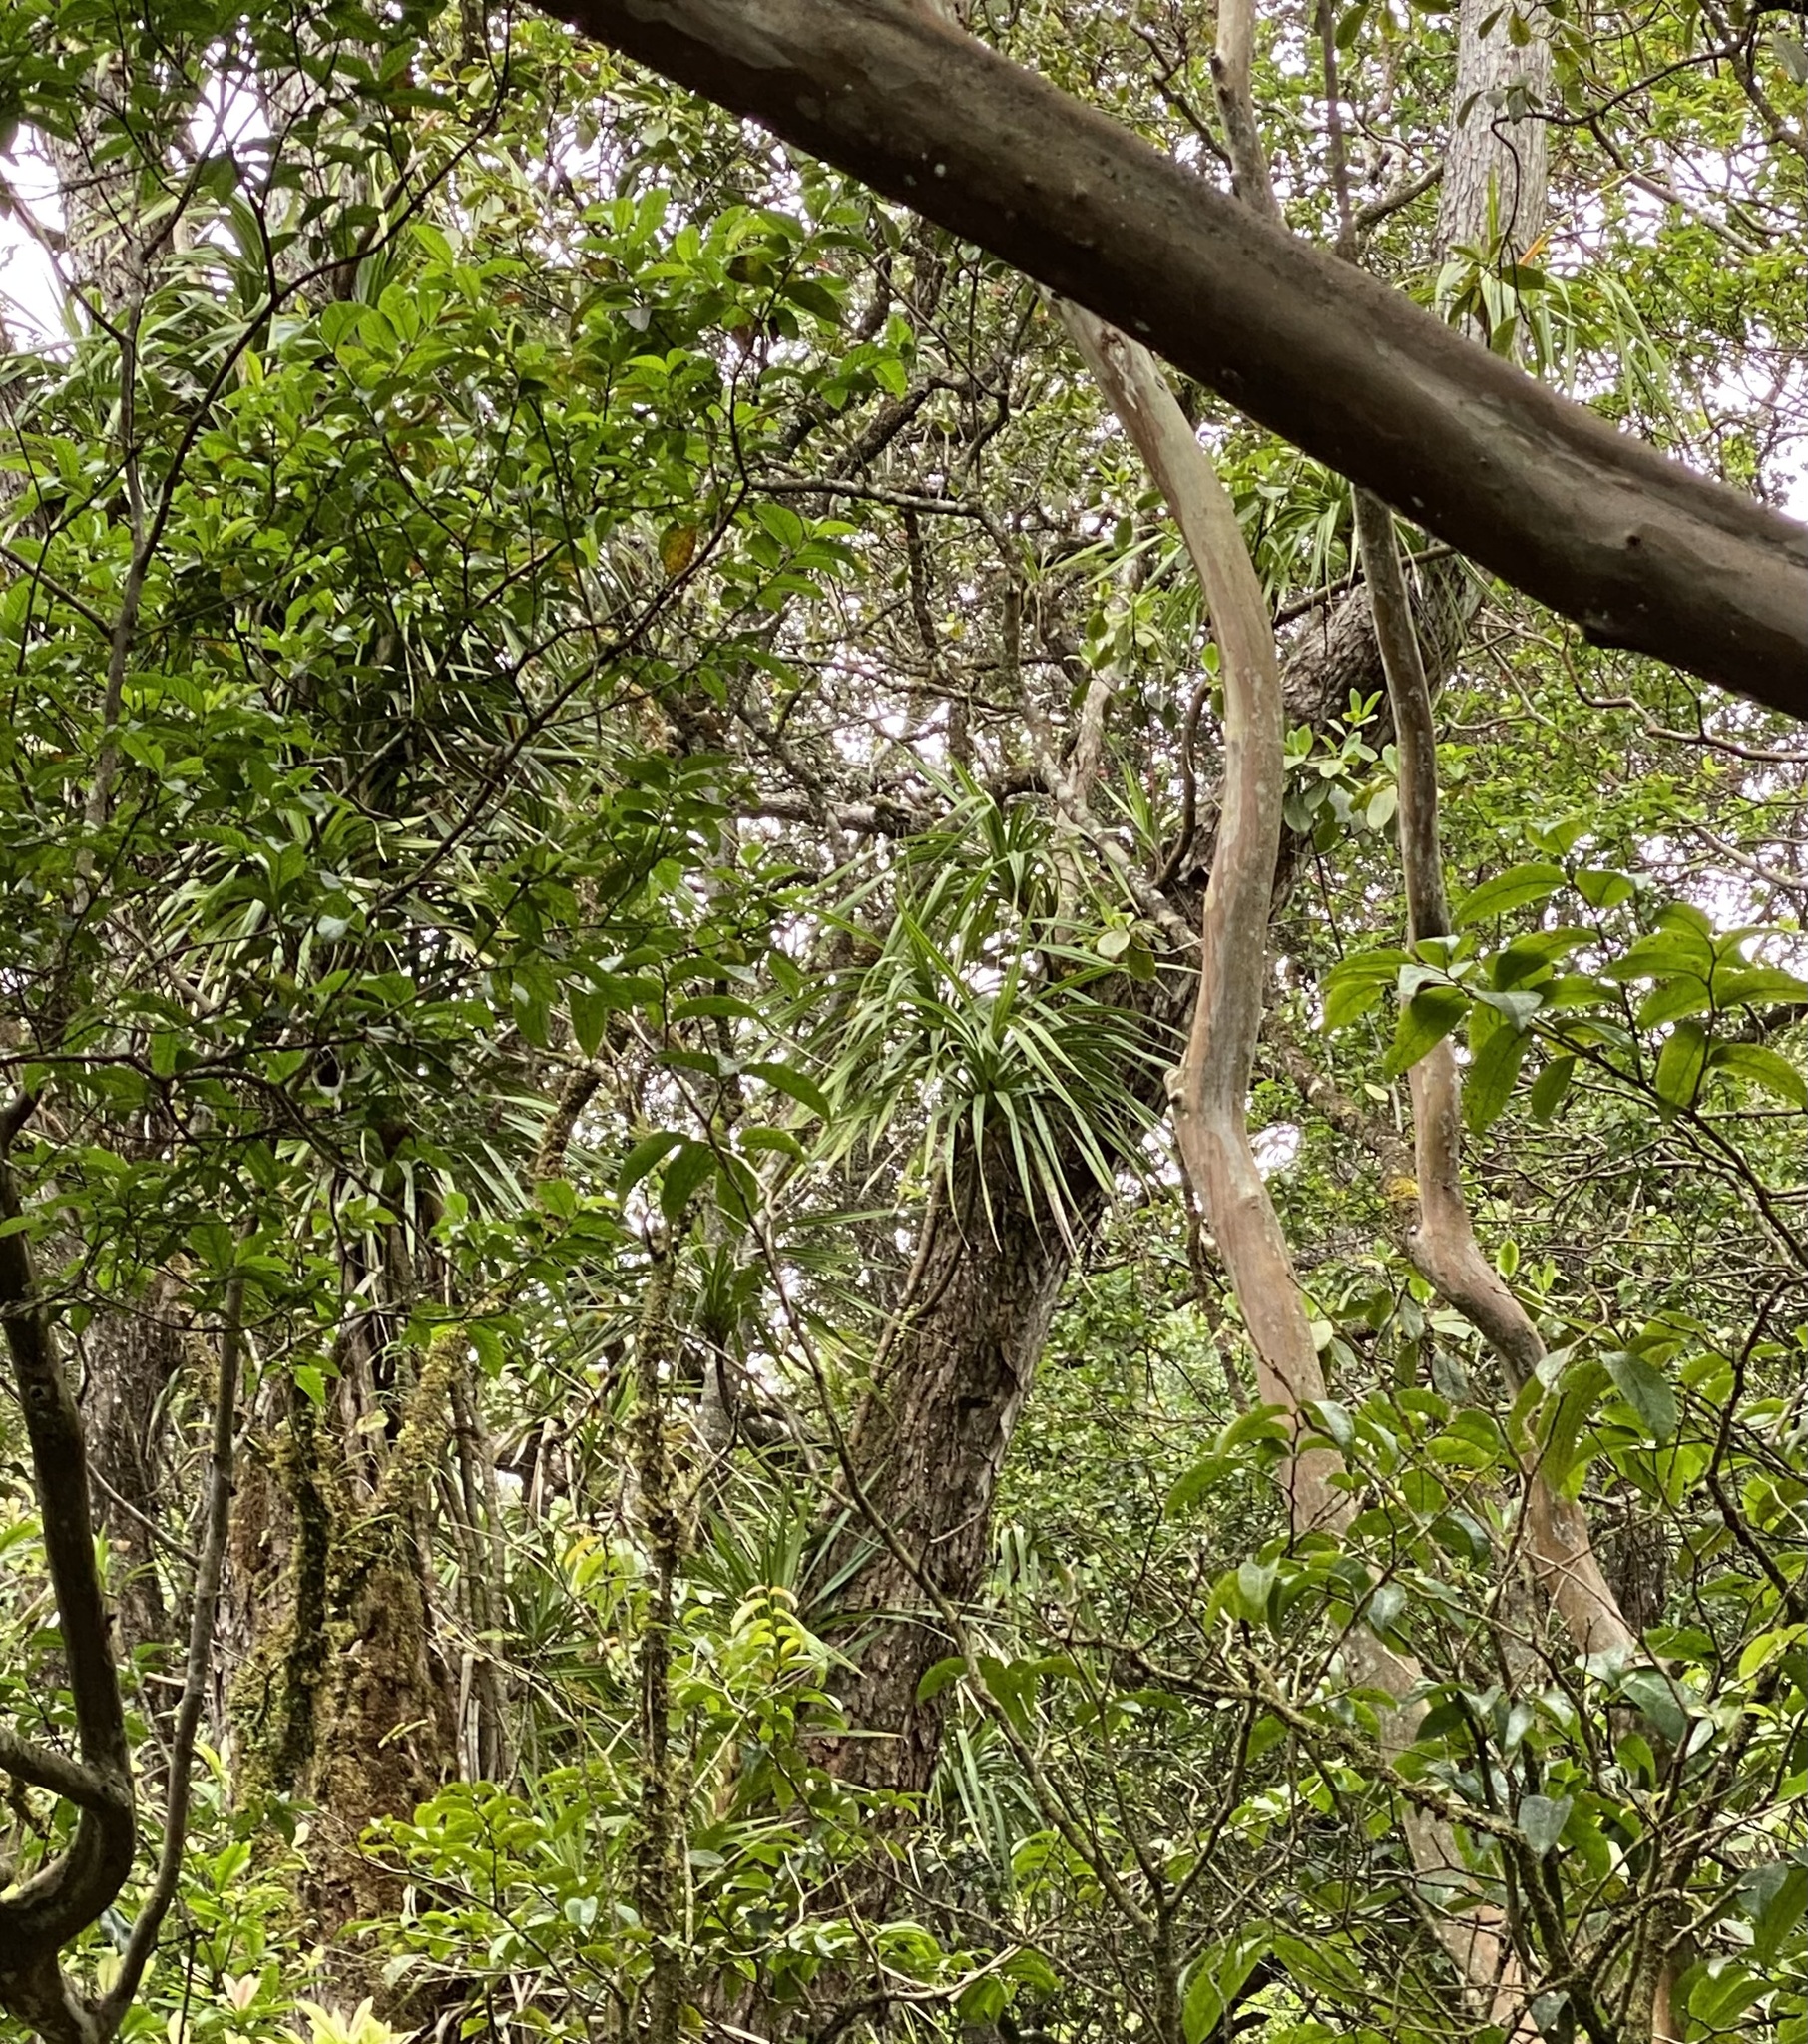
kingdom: Plantae
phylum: Tracheophyta
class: Liliopsida
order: Pandanales
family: Pandanaceae
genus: Freycinetia
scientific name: Freycinetia arborea
